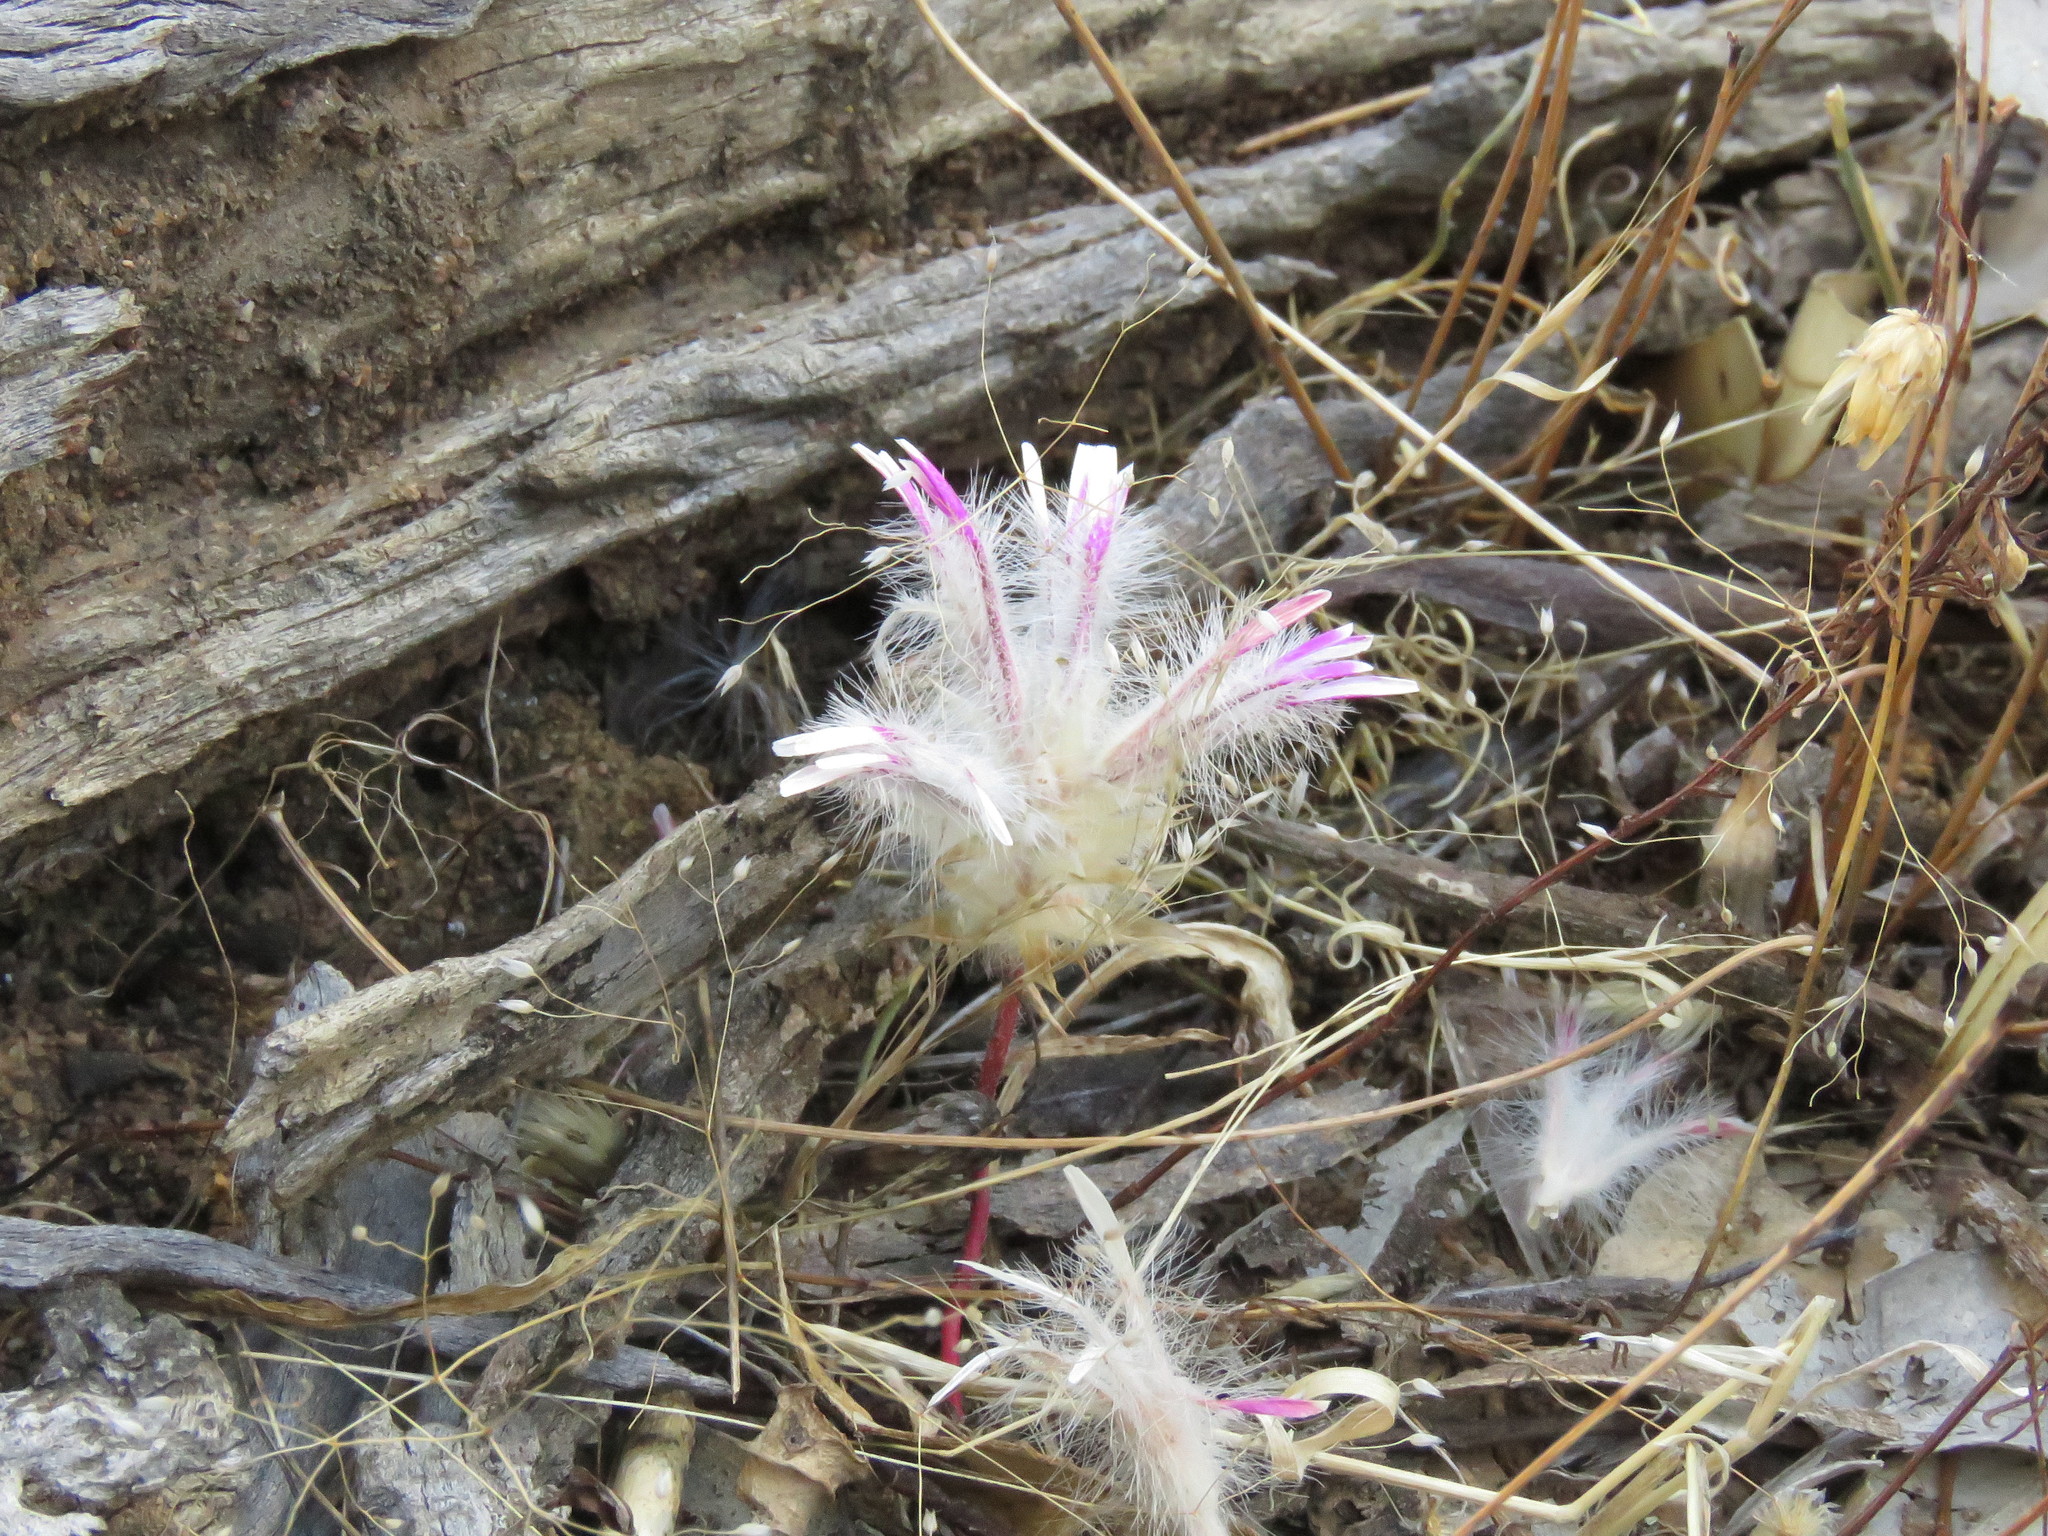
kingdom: Plantae
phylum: Tracheophyta
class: Magnoliopsida
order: Caryophyllales
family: Amaranthaceae
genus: Ptilotus
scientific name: Ptilotus manglesii
